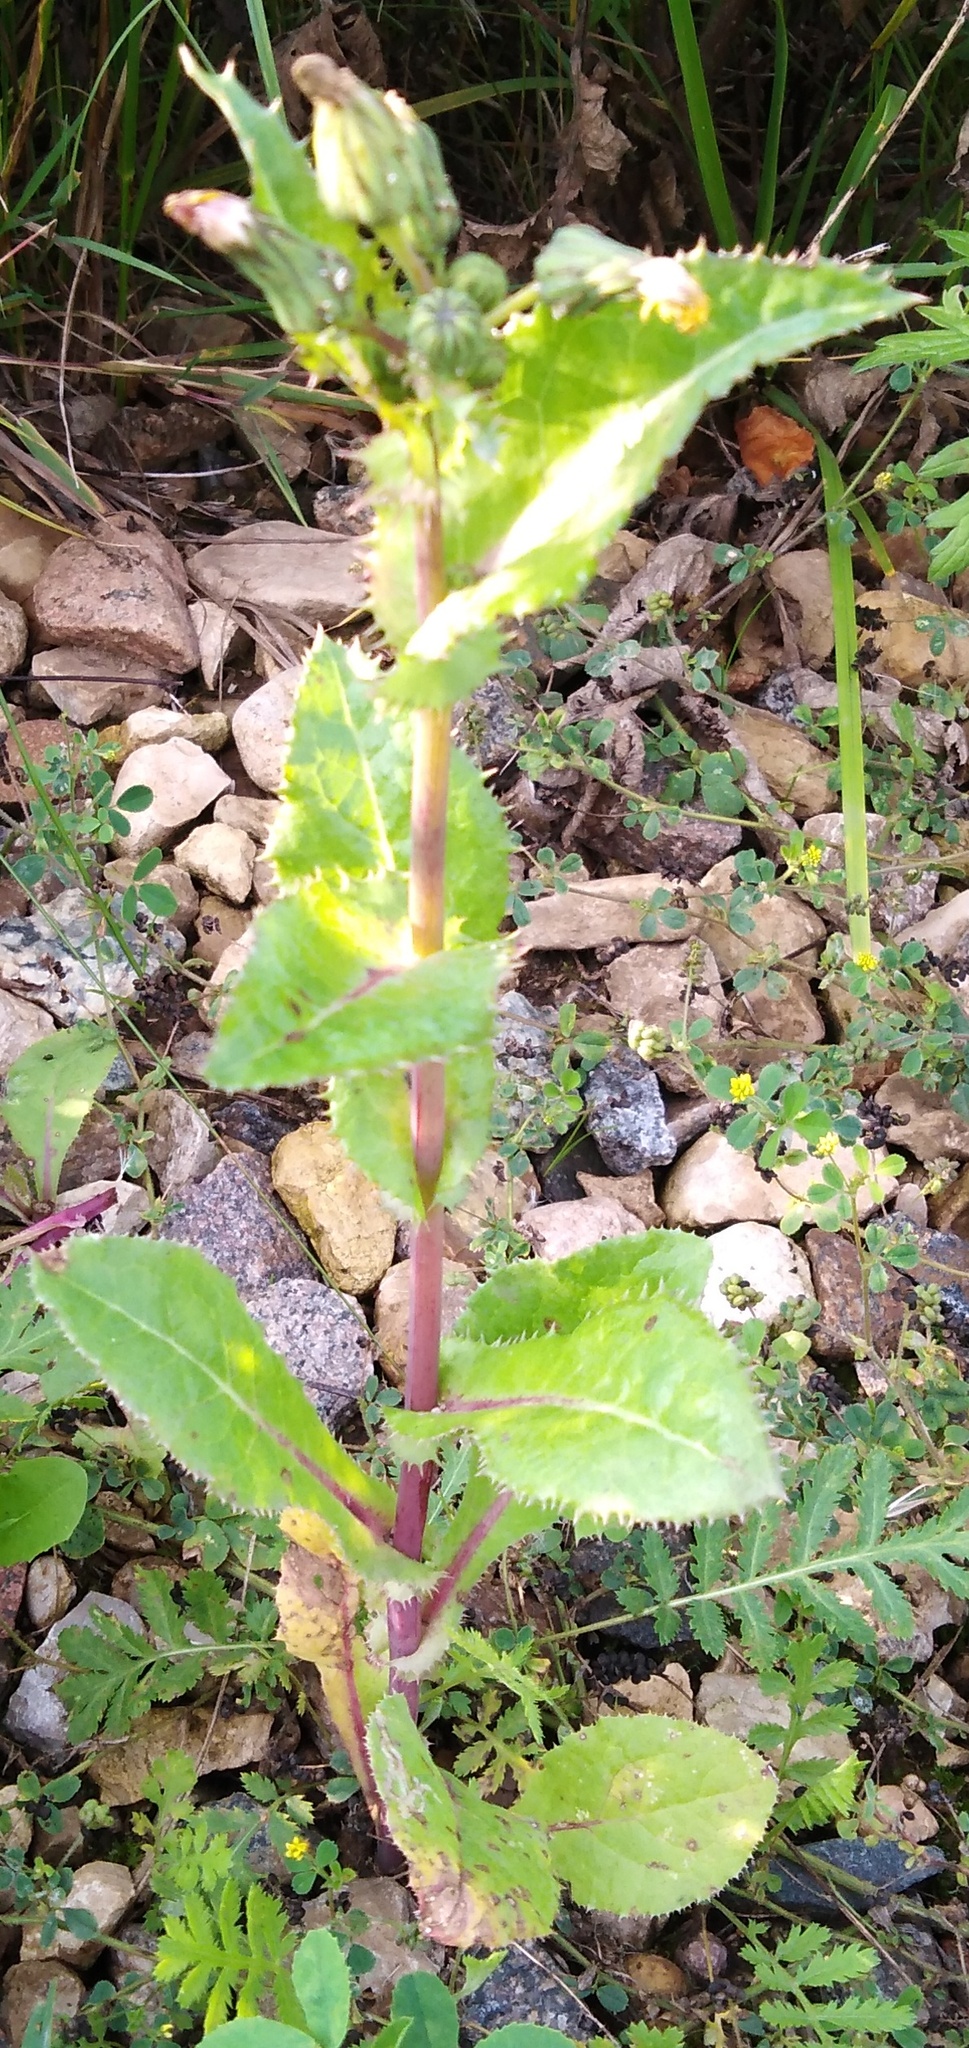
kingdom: Plantae
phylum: Tracheophyta
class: Magnoliopsida
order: Asterales
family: Asteraceae
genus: Sonchus
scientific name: Sonchus asper
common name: Prickly sow-thistle
